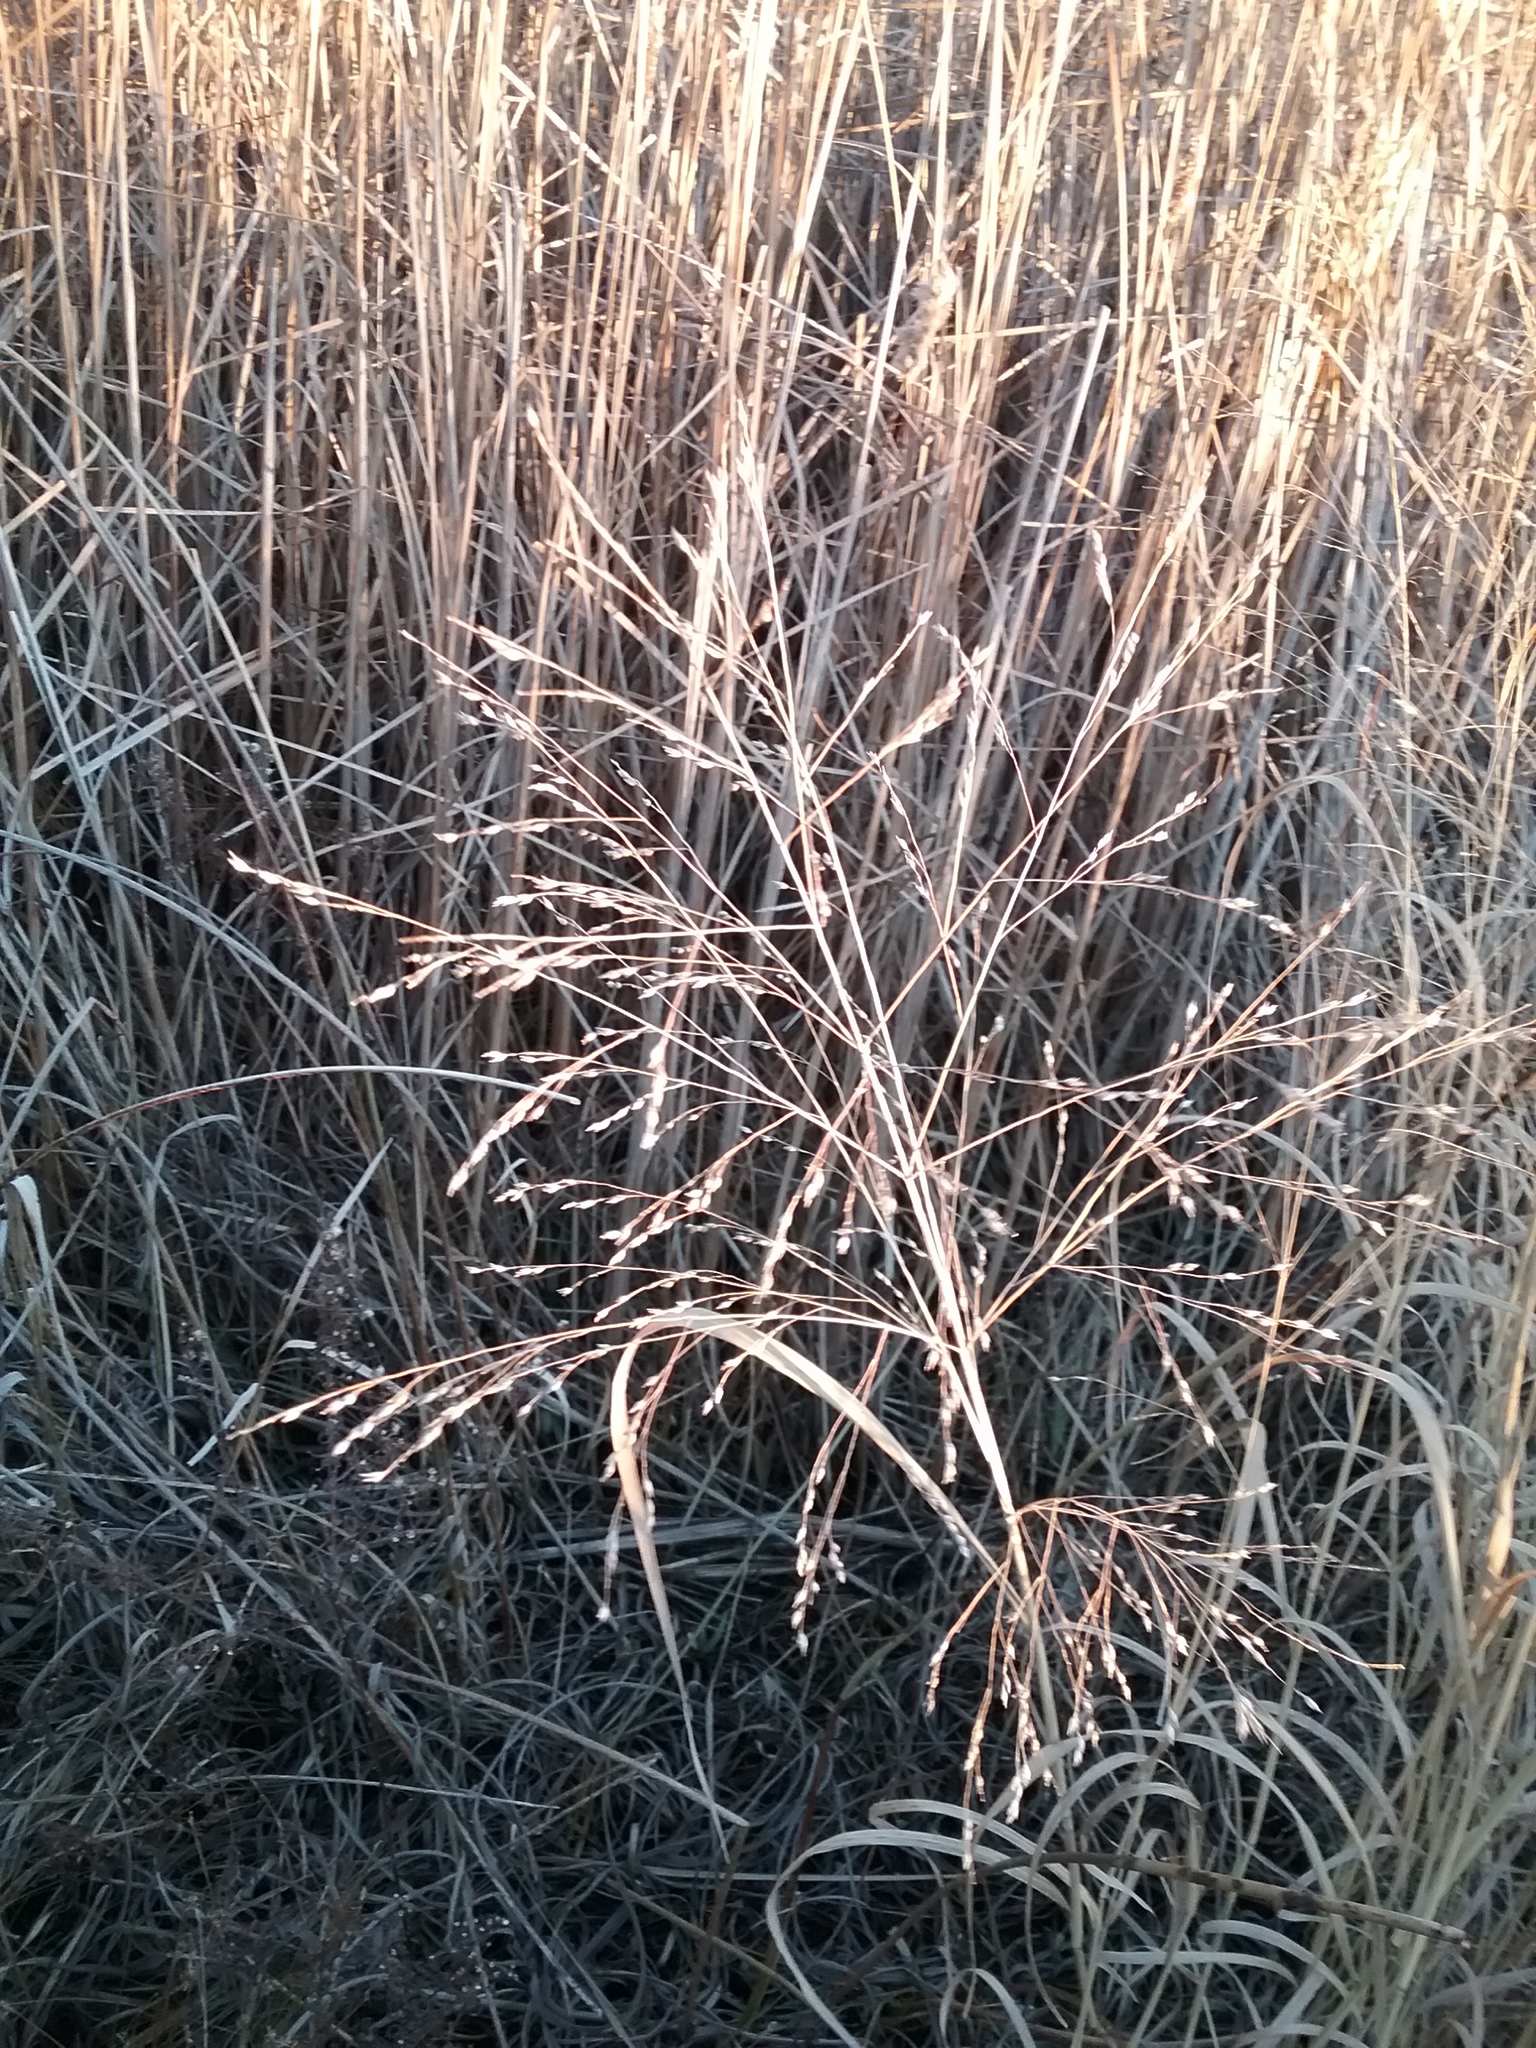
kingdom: Plantae
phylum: Tracheophyta
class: Liliopsida
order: Poales
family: Poaceae
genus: Panicum
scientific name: Panicum virgatum
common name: Switchgrass
